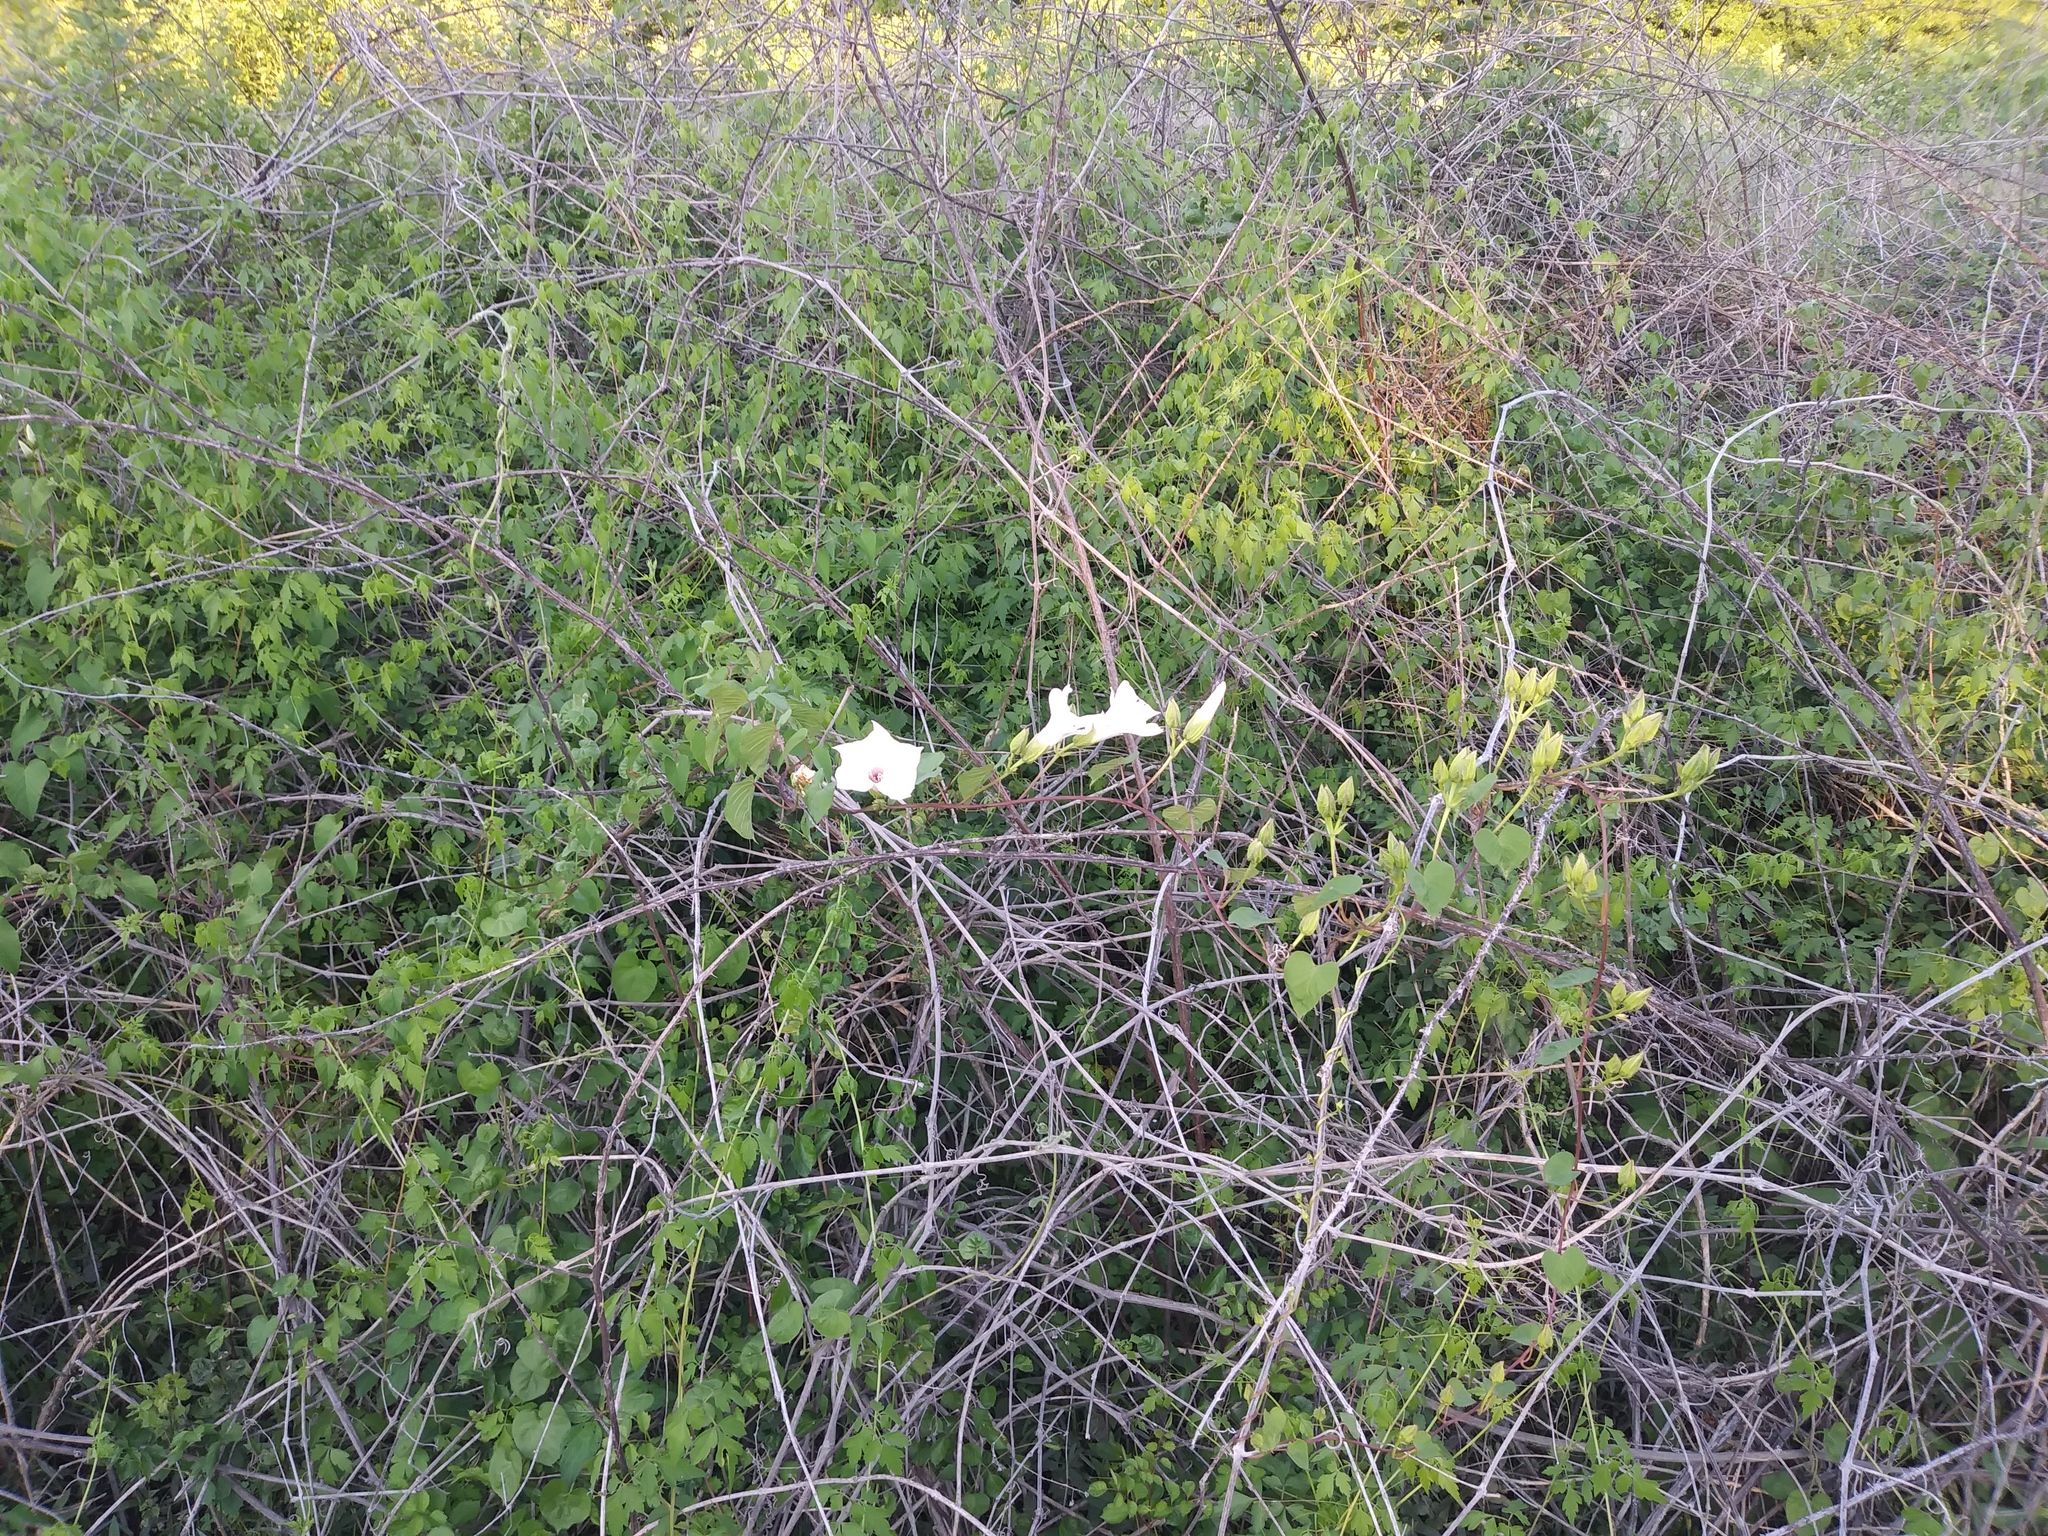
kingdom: Plantae
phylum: Tracheophyta
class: Magnoliopsida
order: Solanales
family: Convolvulaceae
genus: Ipomoea
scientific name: Ipomoea pandurata
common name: Man-of-the-earth
